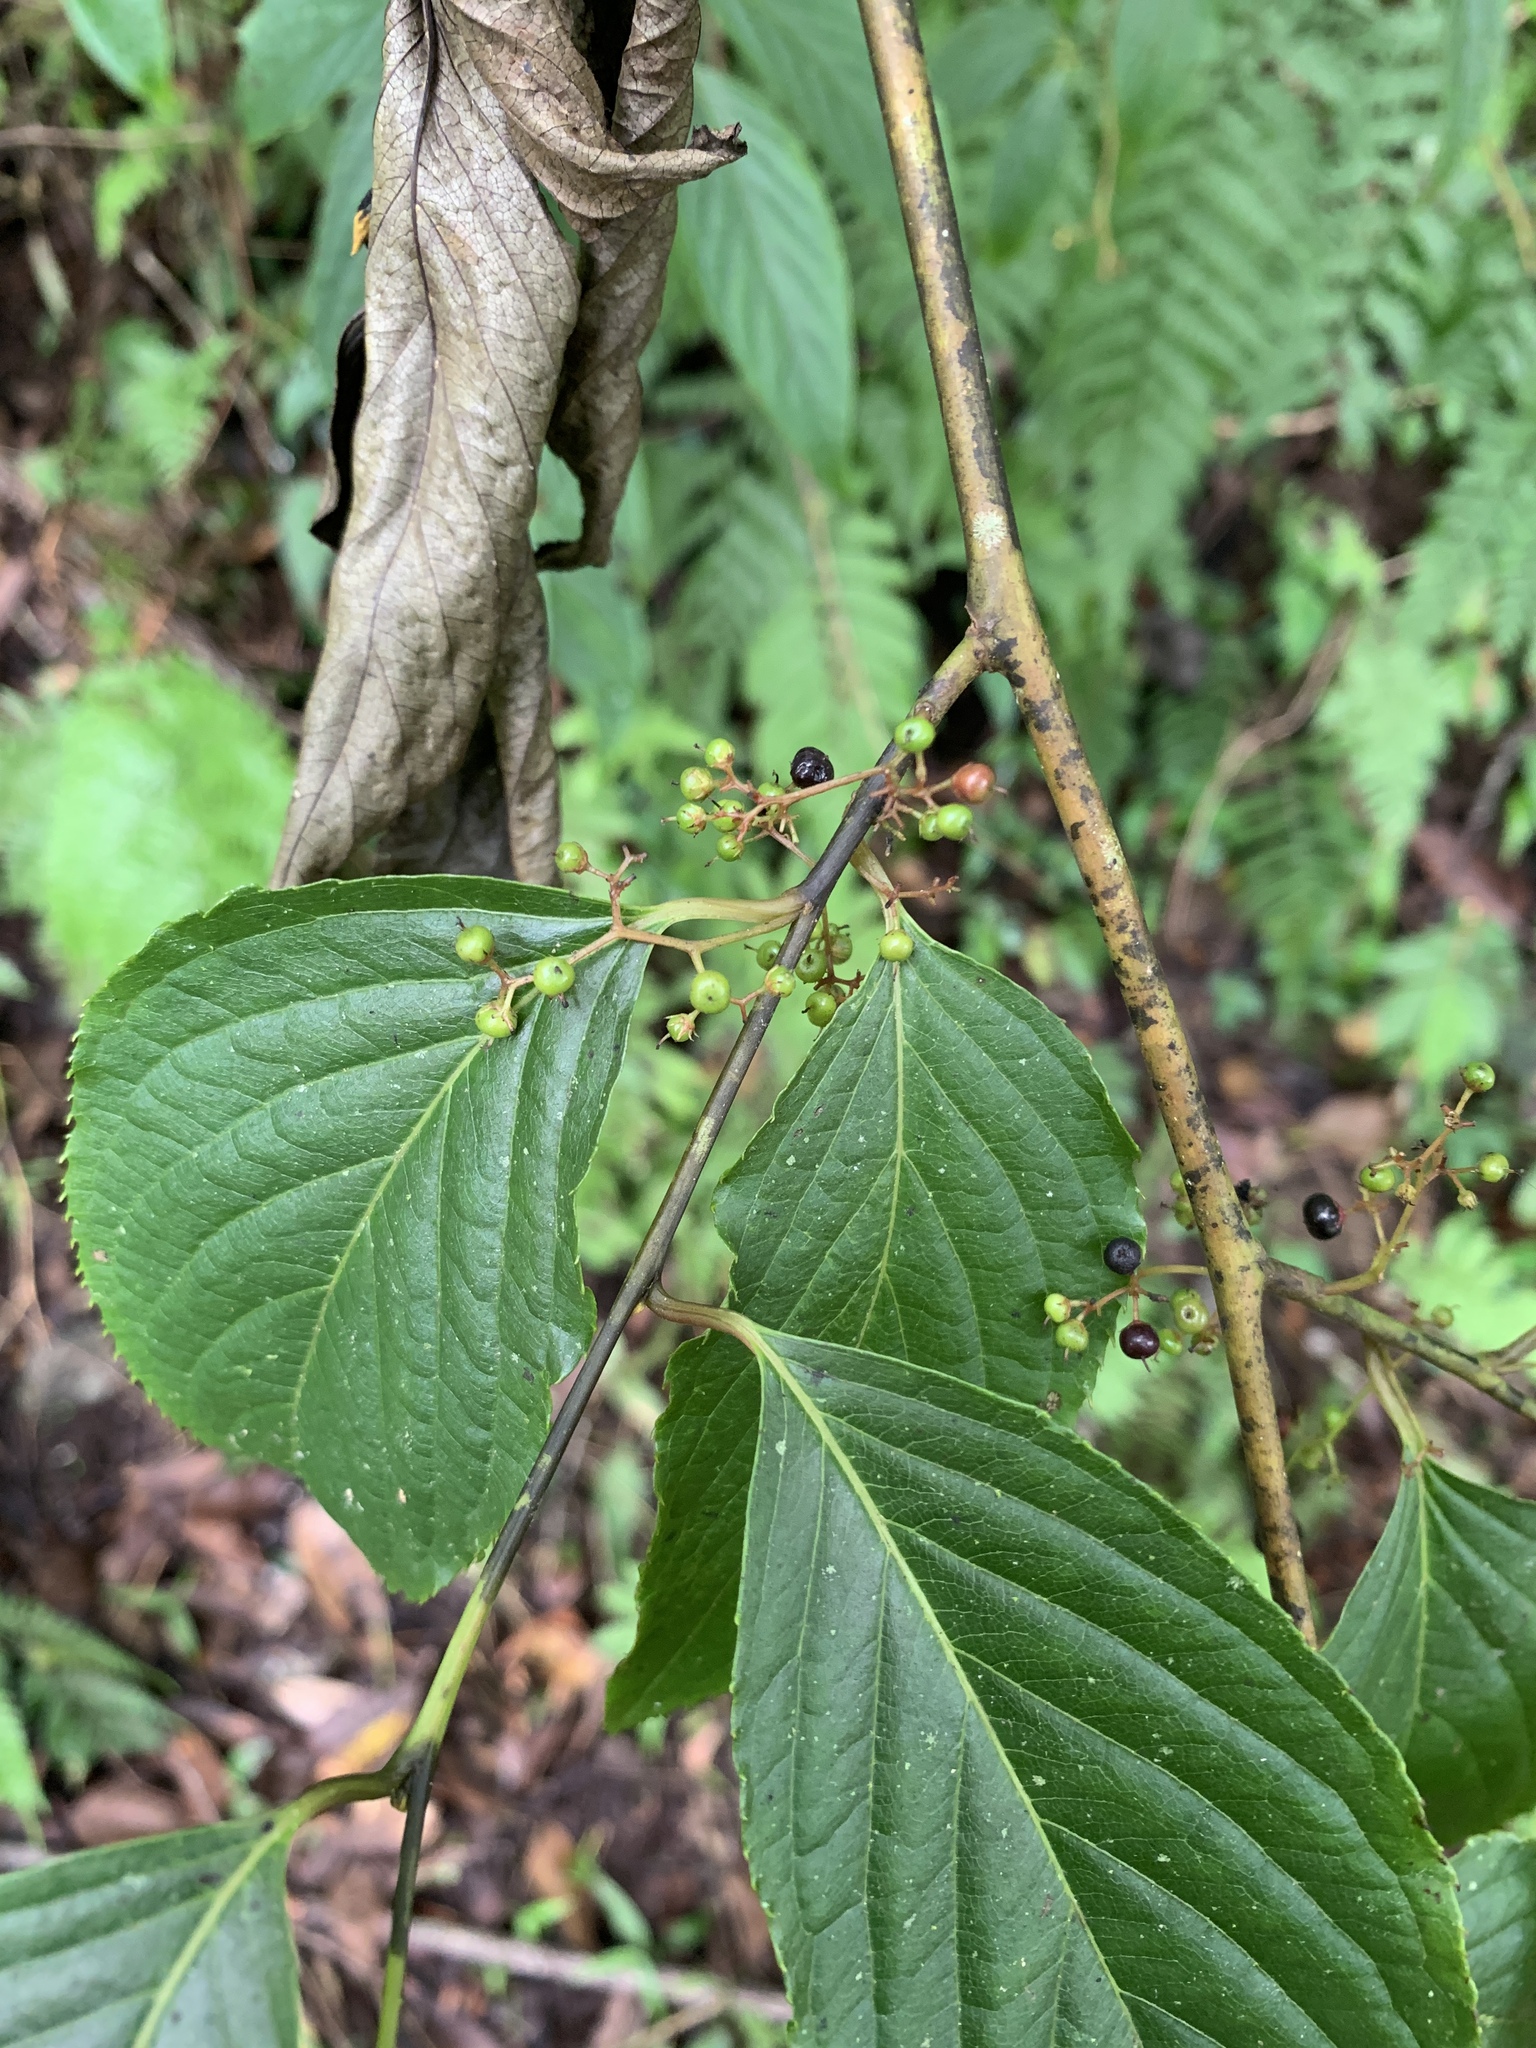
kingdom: Plantae
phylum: Tracheophyta
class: Magnoliopsida
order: Huerteales
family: Dipentodontaceae
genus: Perrottetia
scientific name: Perrottetia arisanensis
